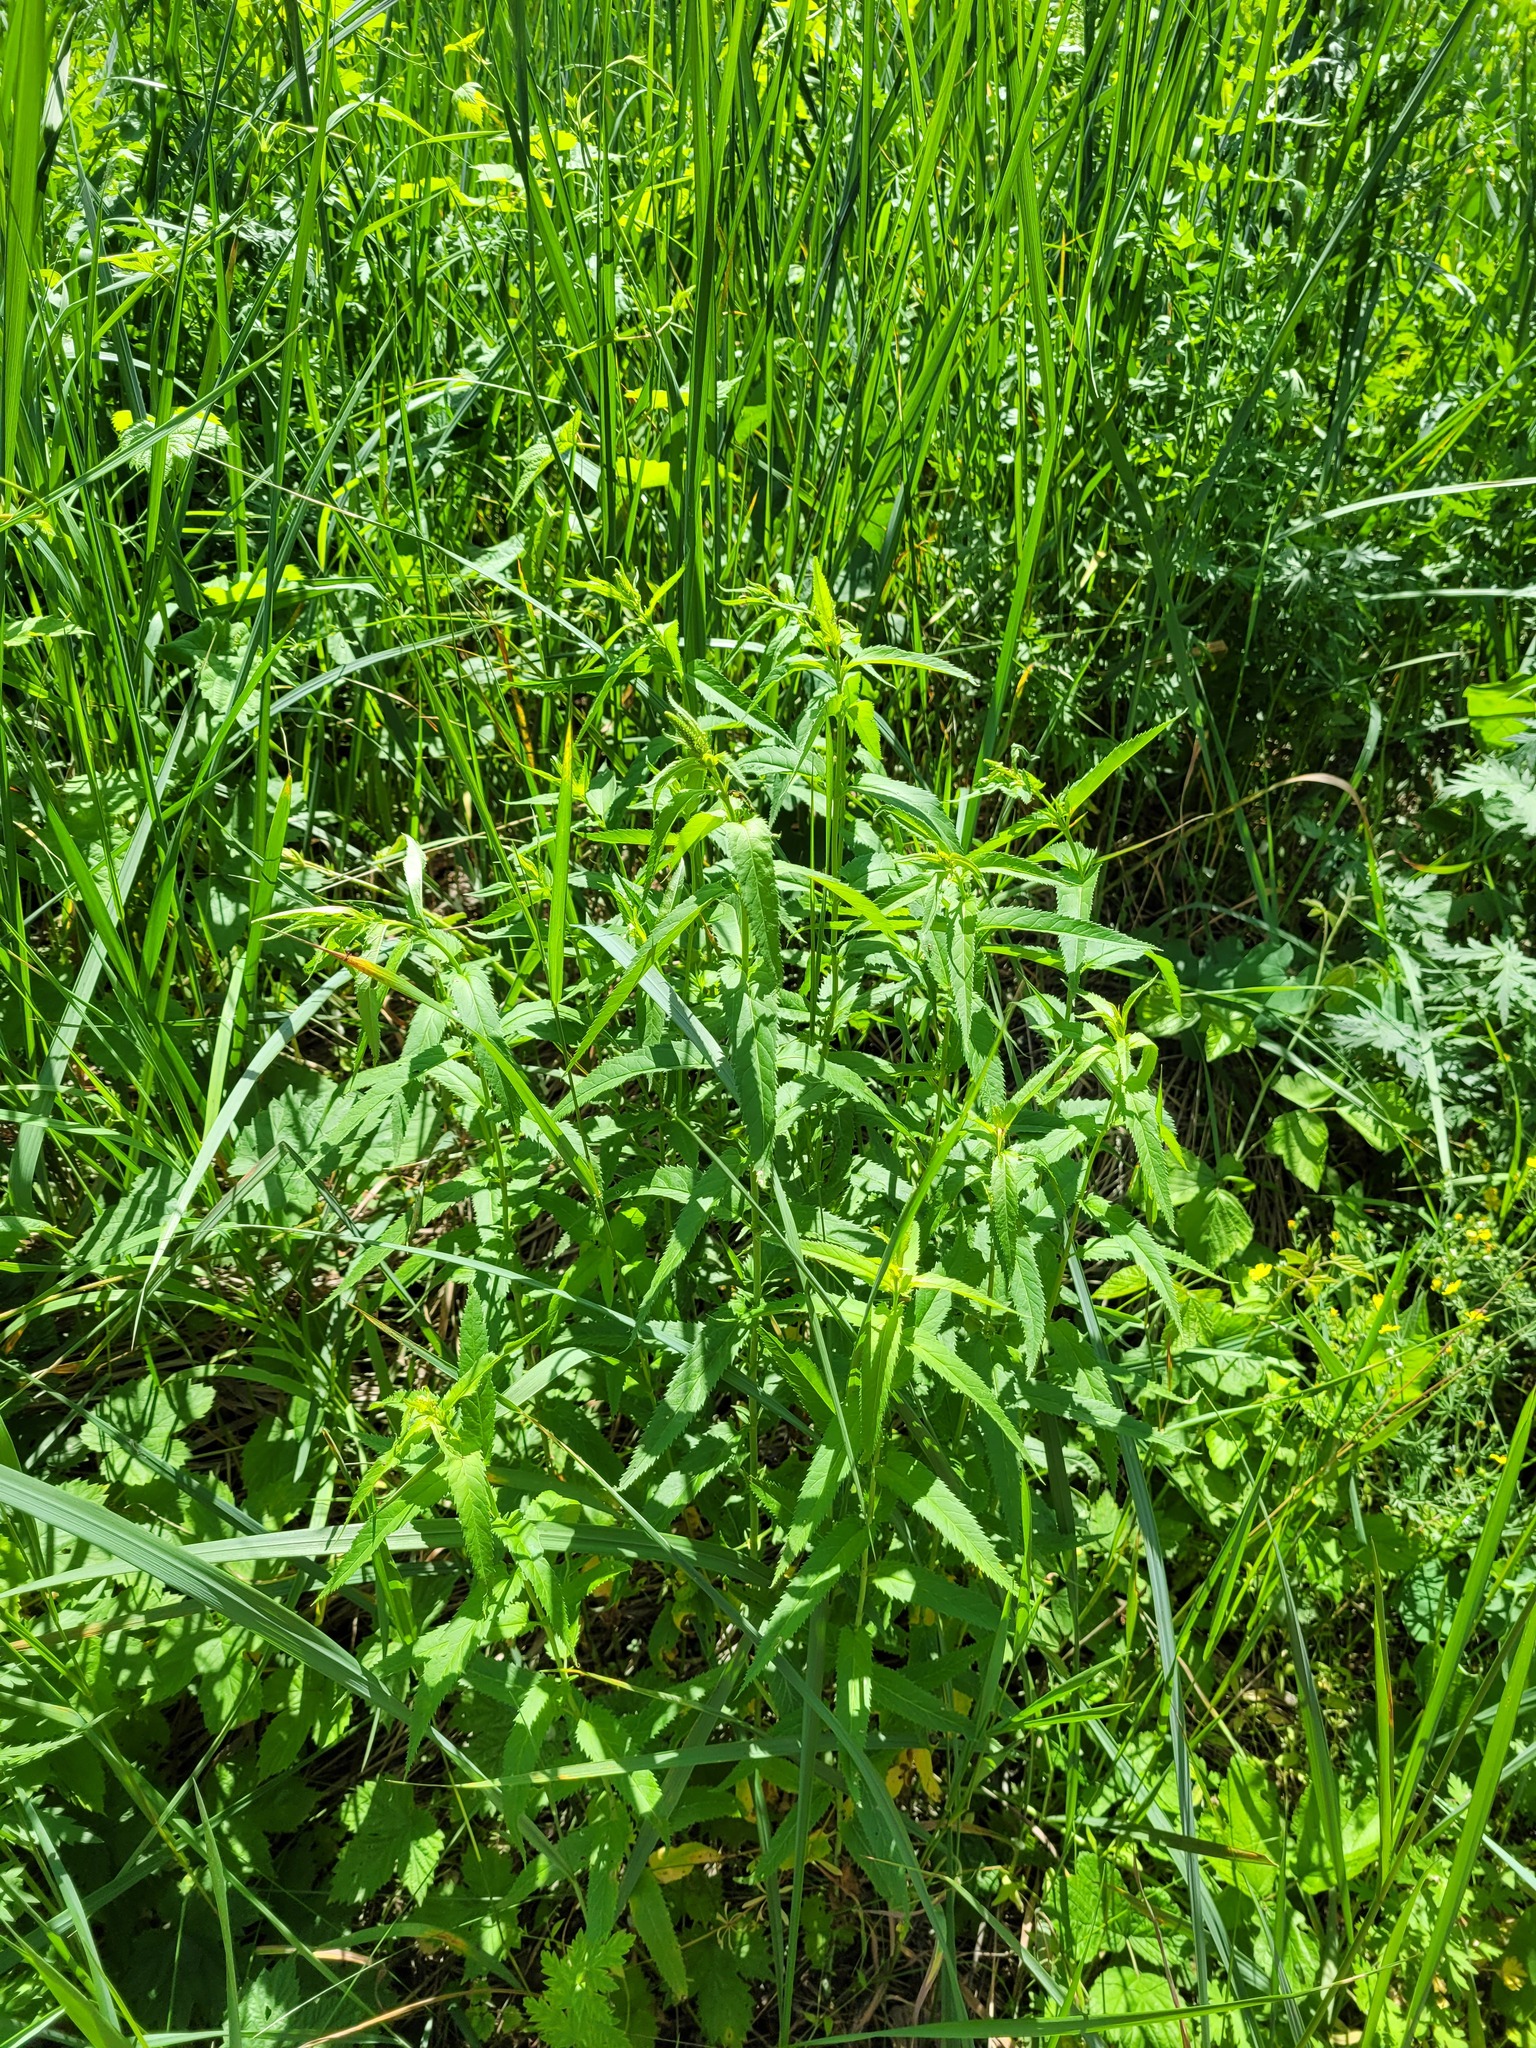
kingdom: Plantae
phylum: Tracheophyta
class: Magnoliopsida
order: Lamiales
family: Plantaginaceae
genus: Veronica
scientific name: Veronica longifolia
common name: Garden speedwell
